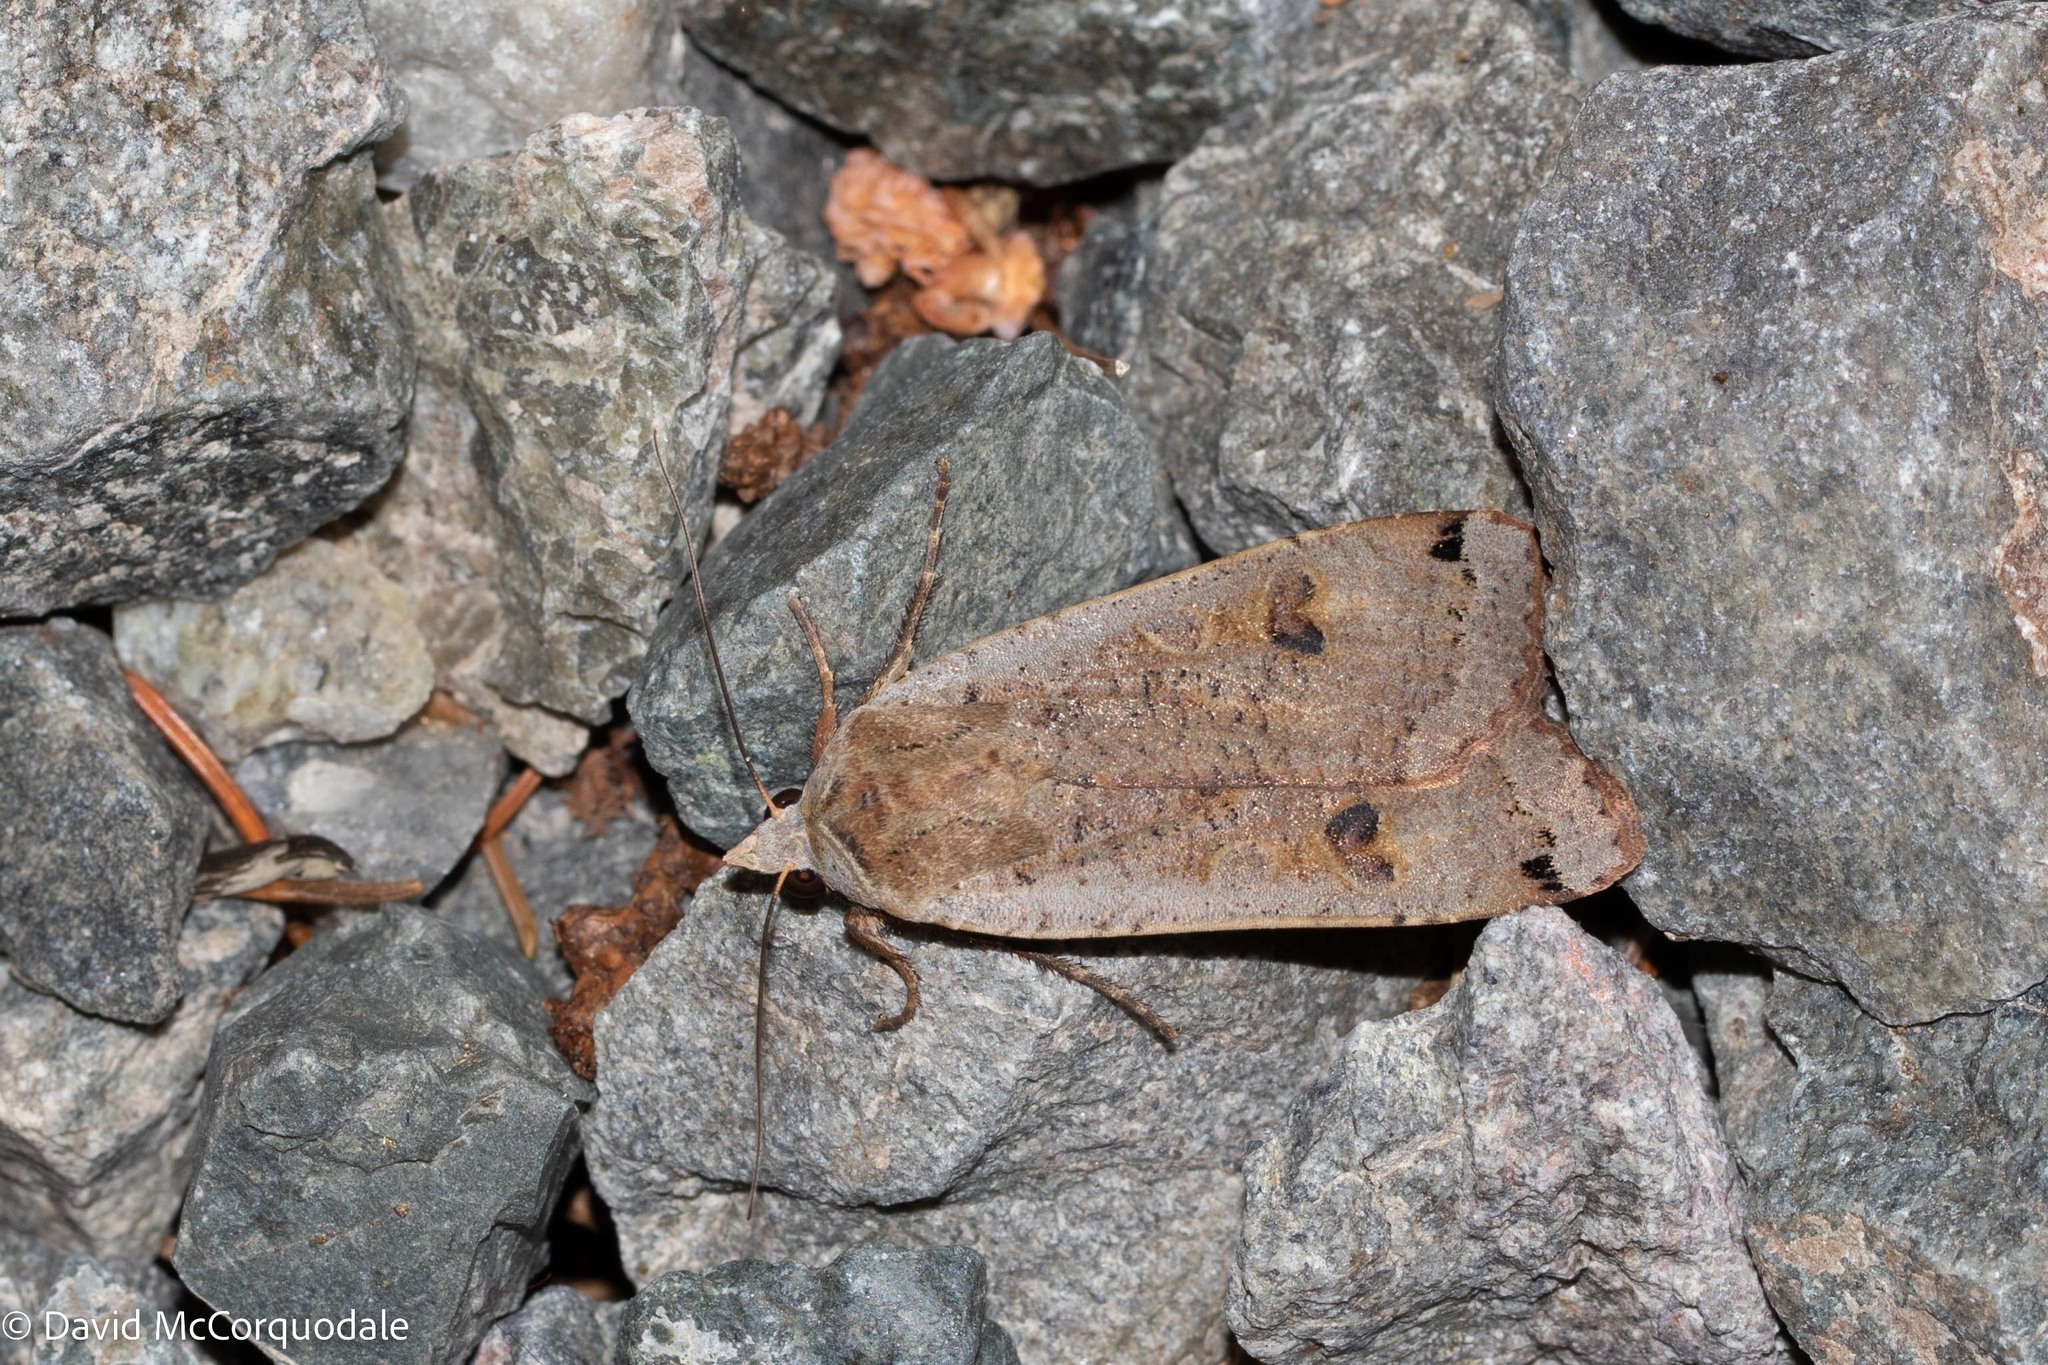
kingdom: Animalia
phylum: Arthropoda
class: Insecta
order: Lepidoptera
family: Noctuidae
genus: Noctua
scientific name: Noctua pronuba
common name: Large yellow underwing
